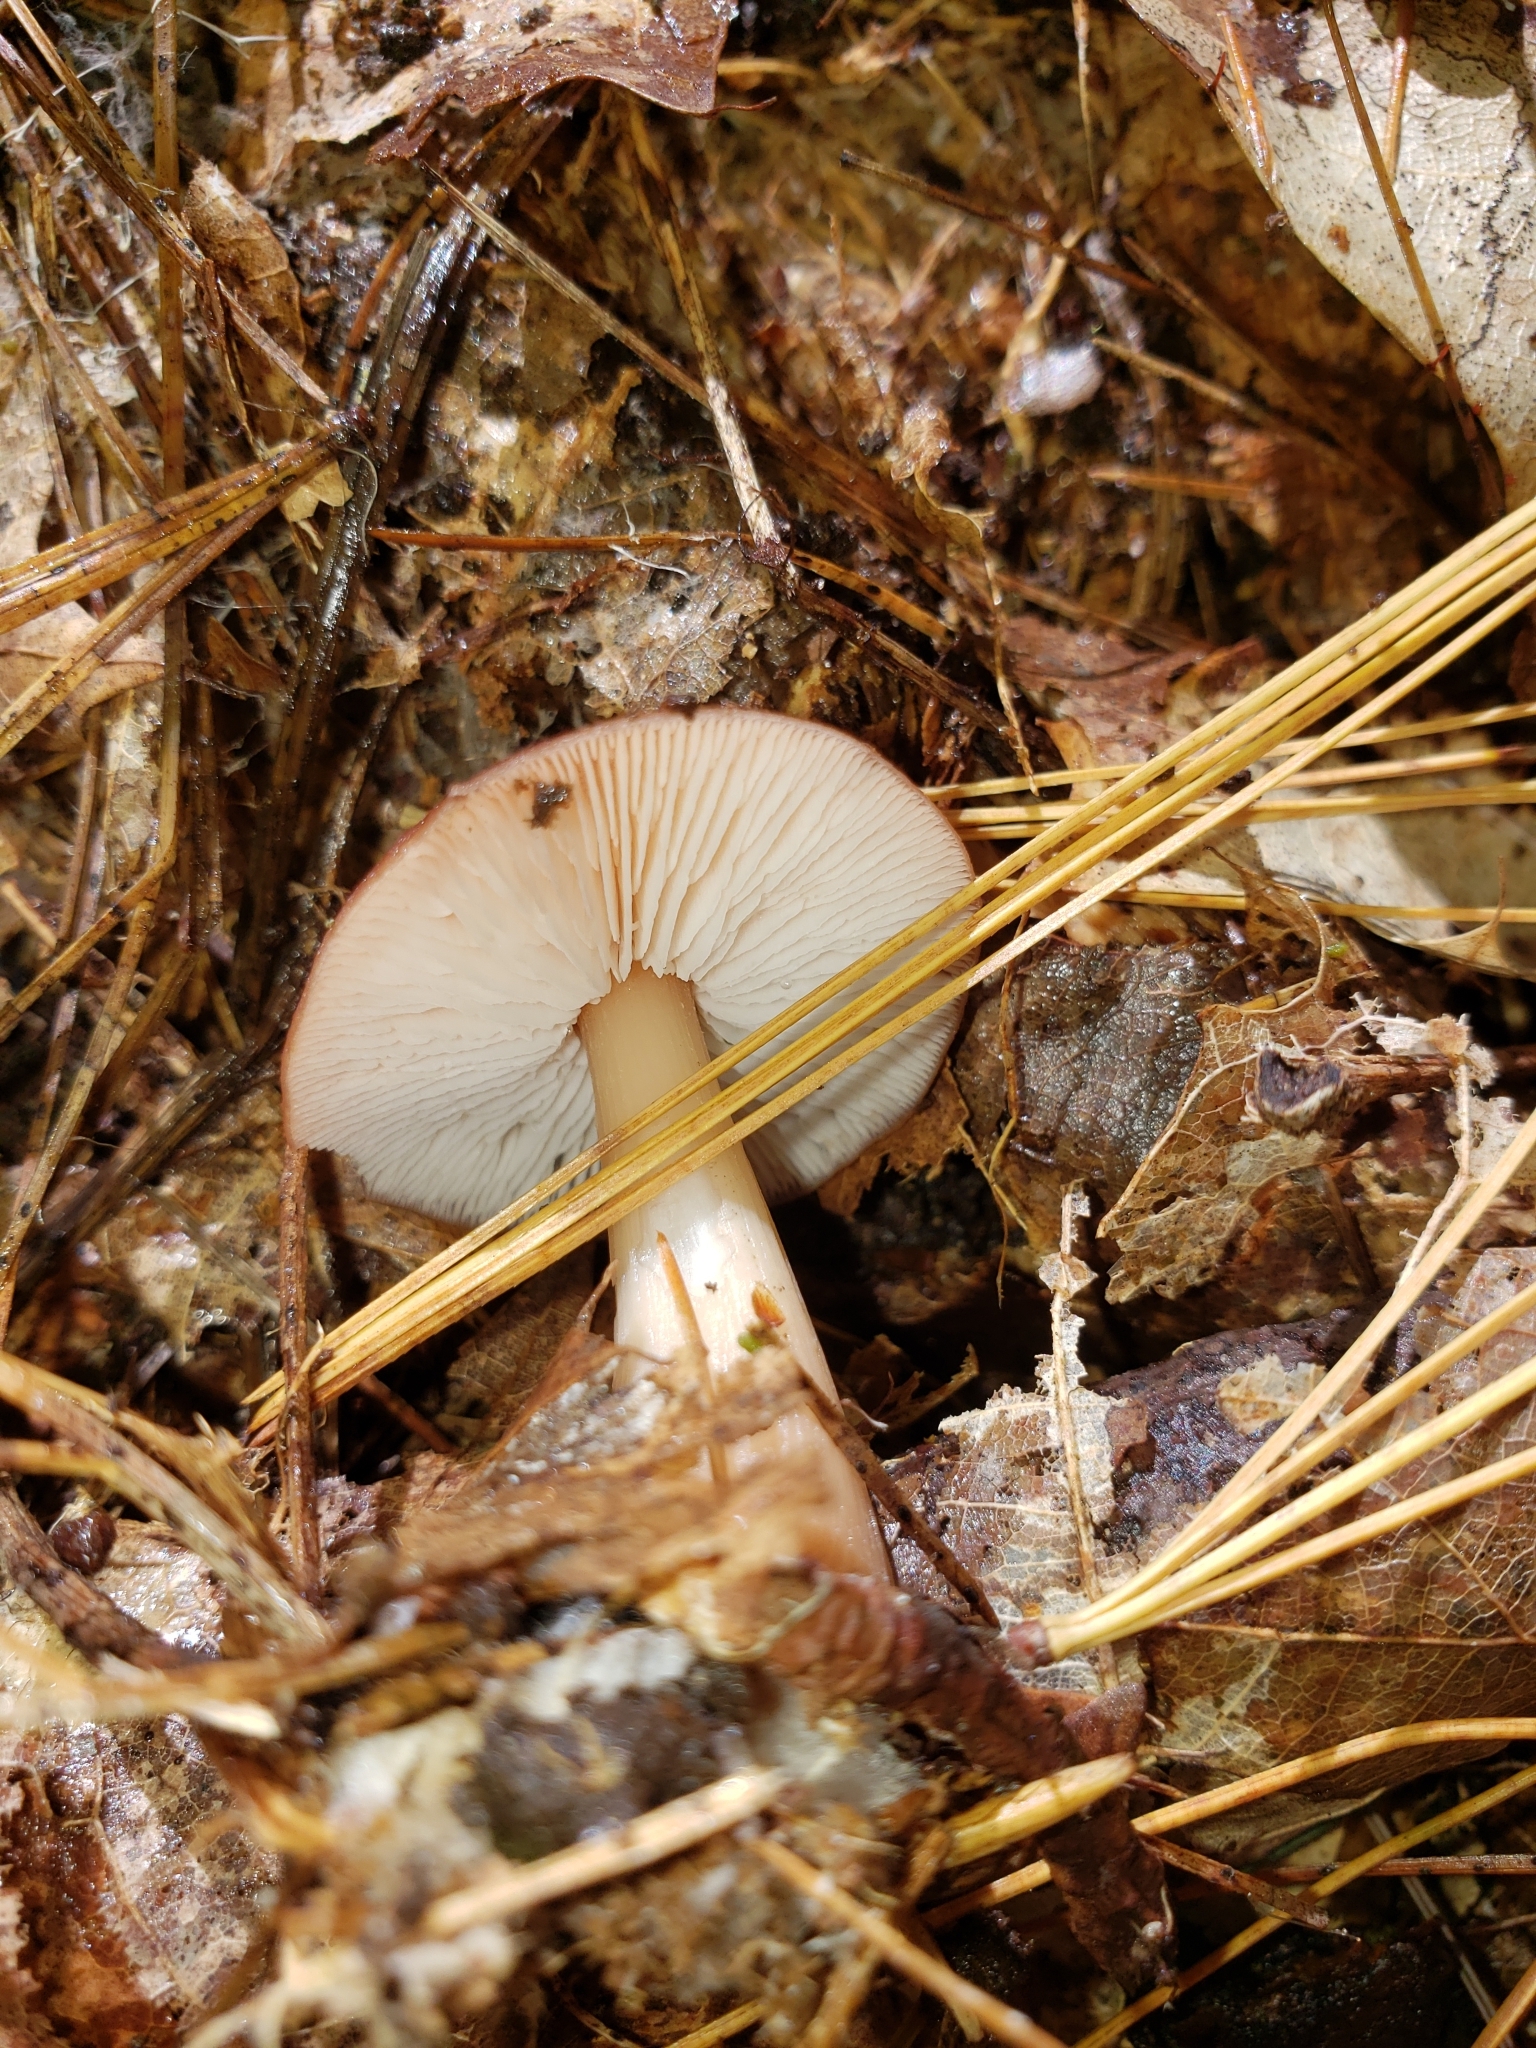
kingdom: Fungi
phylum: Basidiomycota
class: Agaricomycetes
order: Agaricales
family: Omphalotaceae
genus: Rhodocollybia
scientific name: Rhodocollybia butyracea
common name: Butter cap
